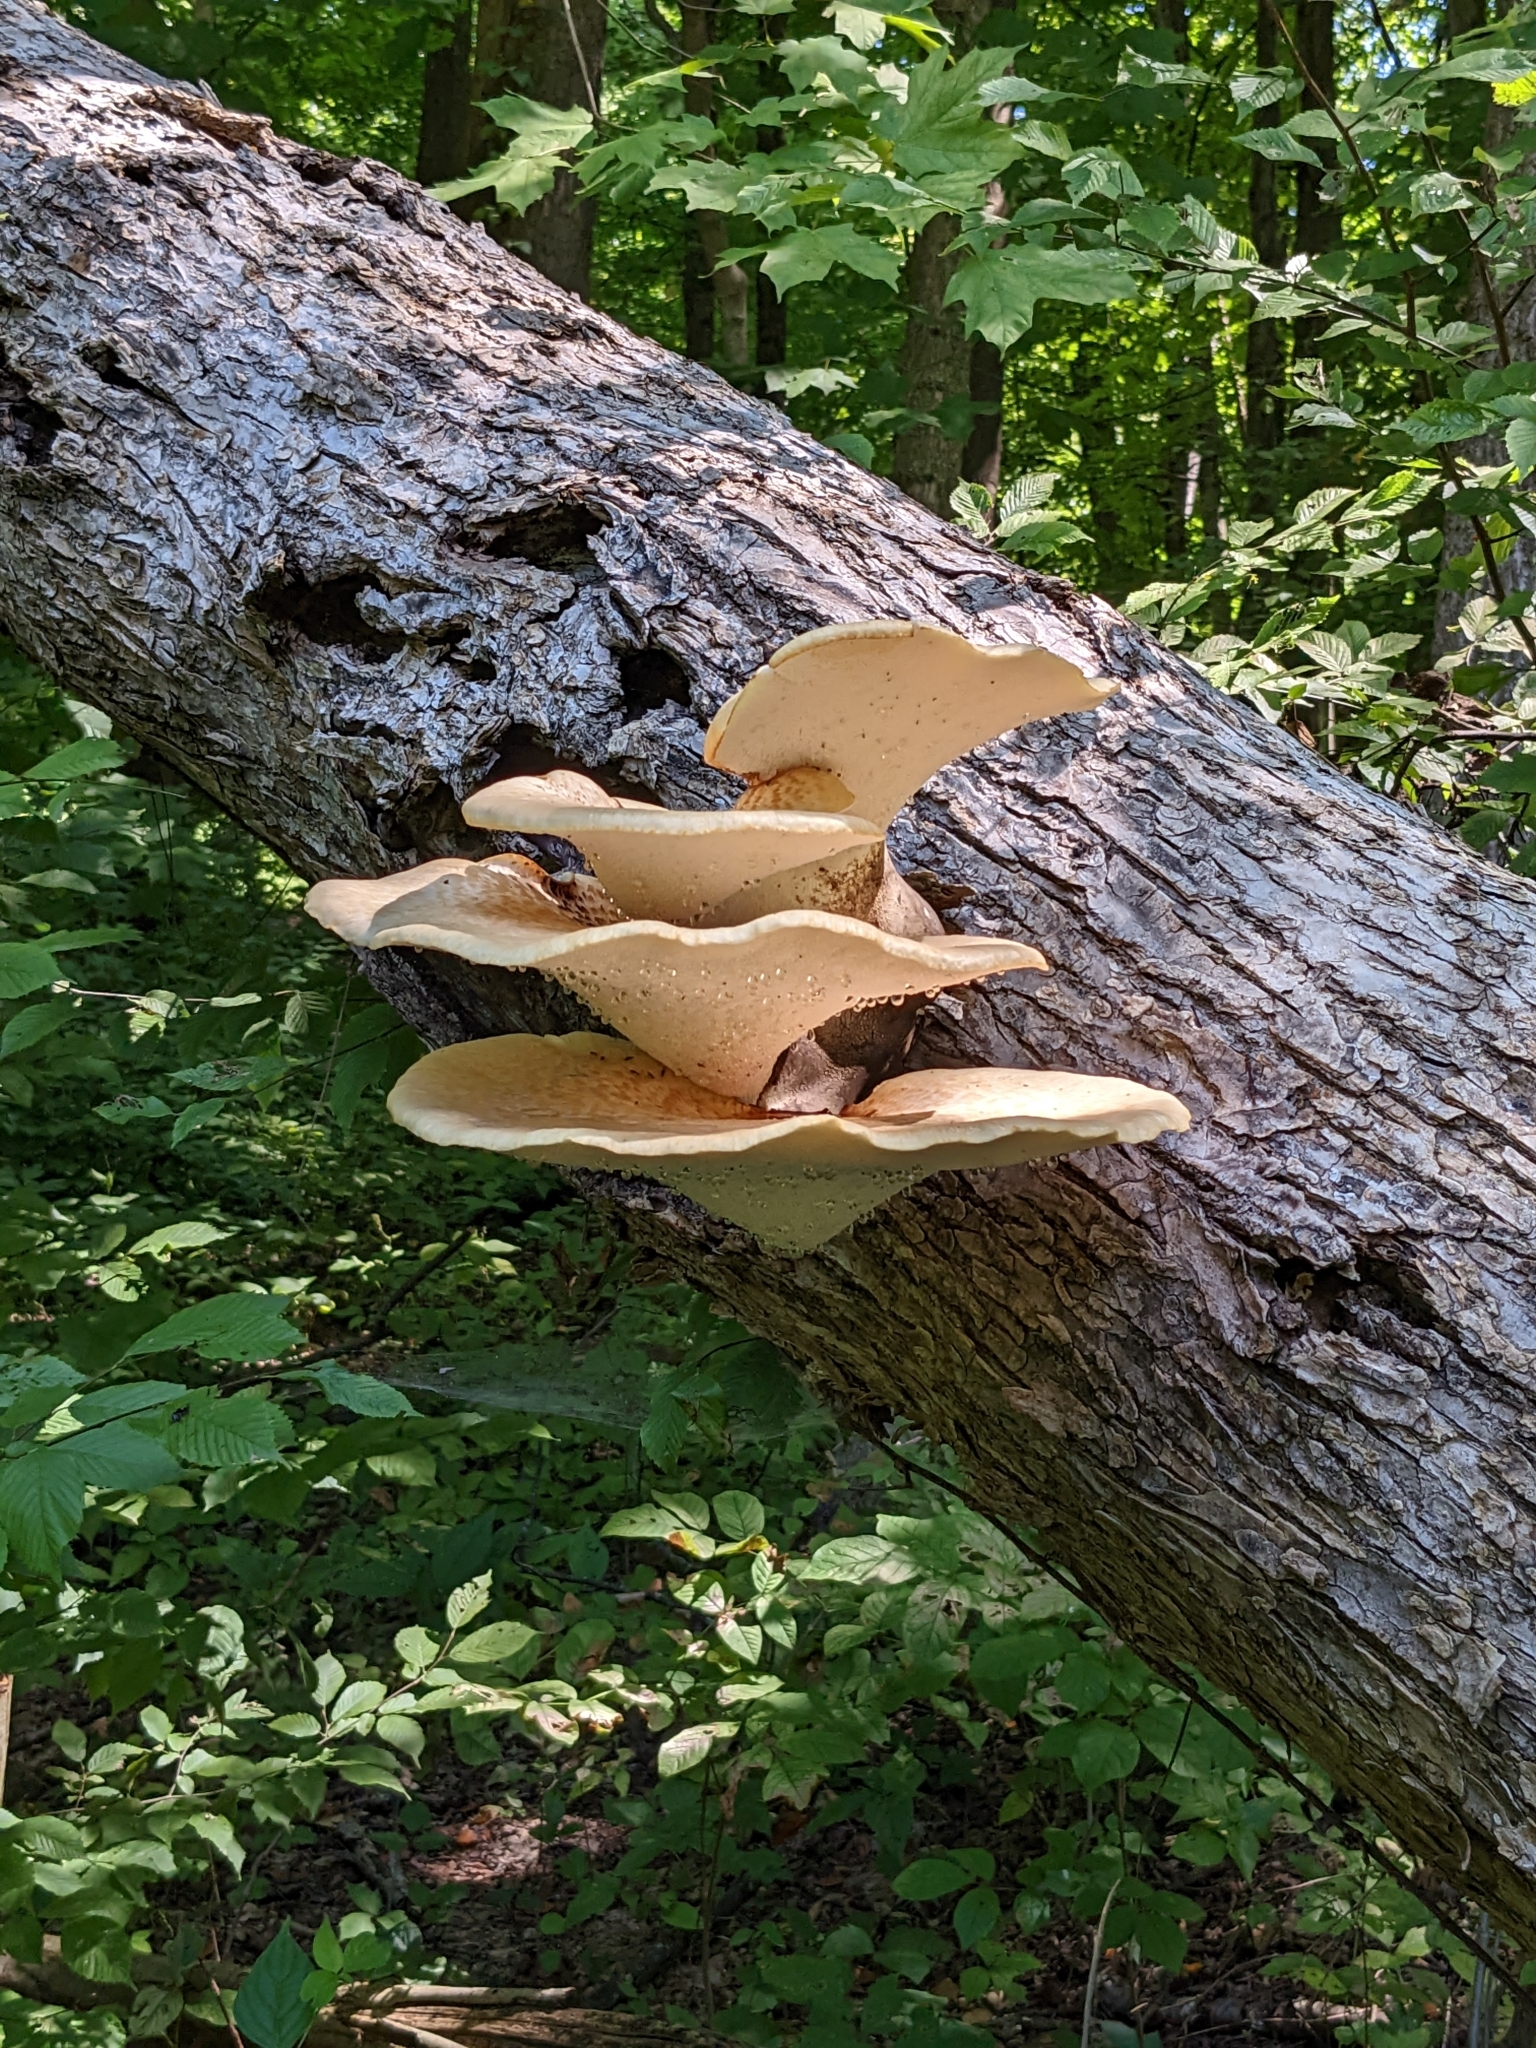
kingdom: Fungi
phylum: Basidiomycota
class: Agaricomycetes
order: Polyporales
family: Polyporaceae
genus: Cerioporus
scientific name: Cerioporus squamosus
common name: Dryad's saddle
